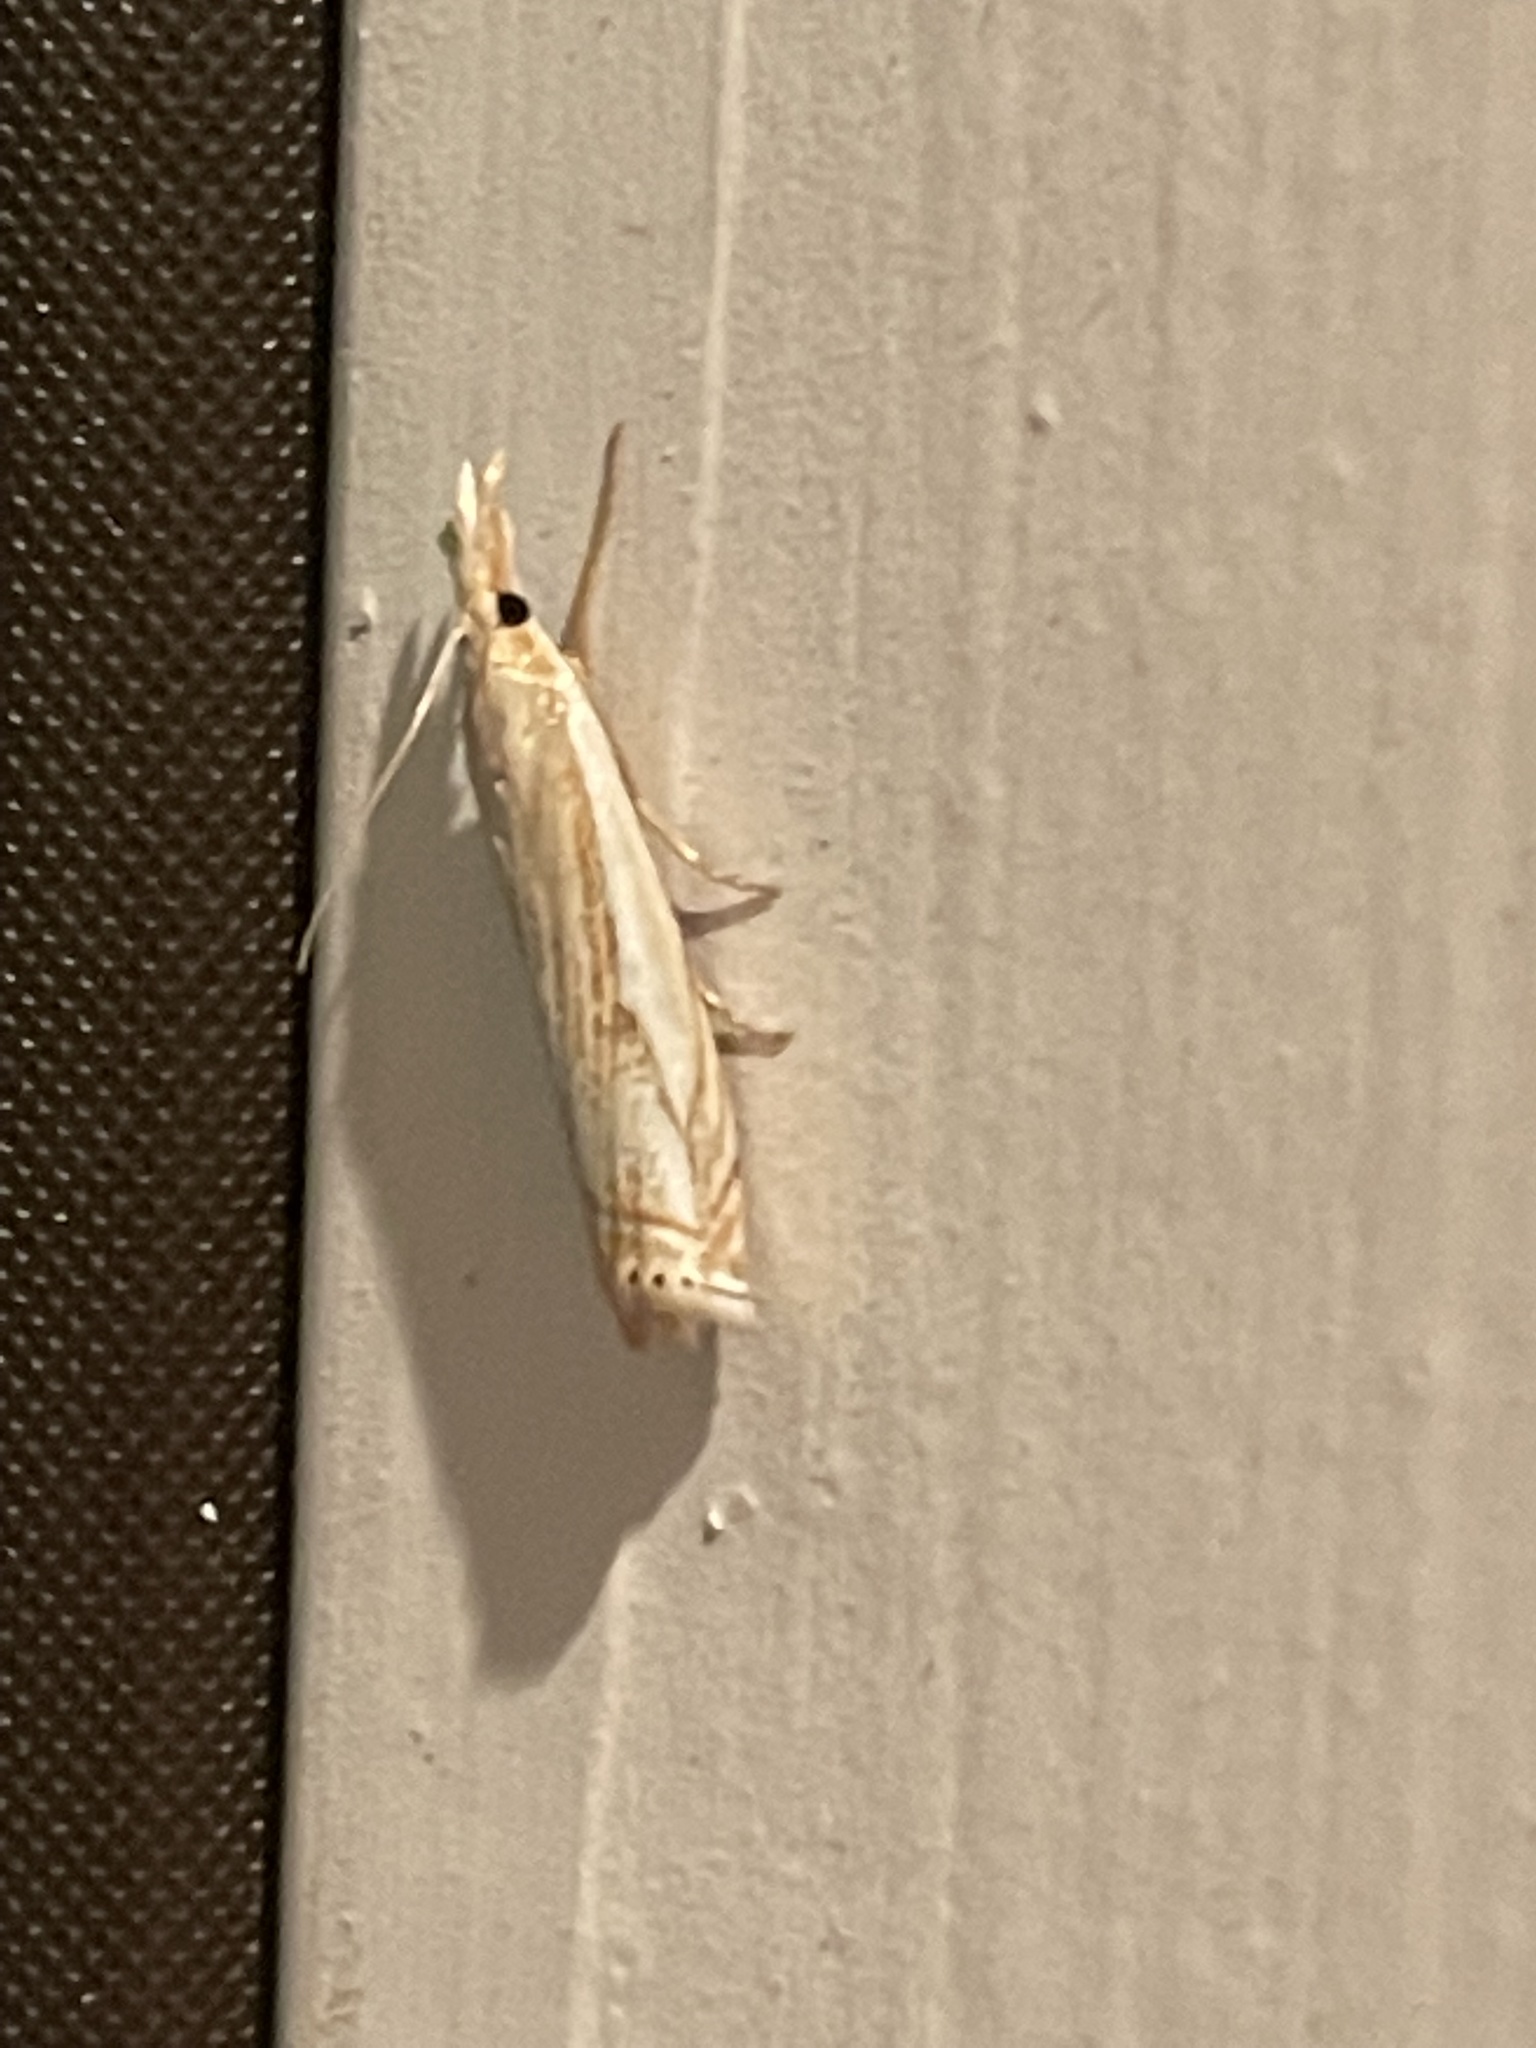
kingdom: Animalia
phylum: Arthropoda
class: Insecta
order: Lepidoptera
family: Crambidae
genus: Crambus
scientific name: Crambus saltuellus
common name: Pasture grass-veneer
